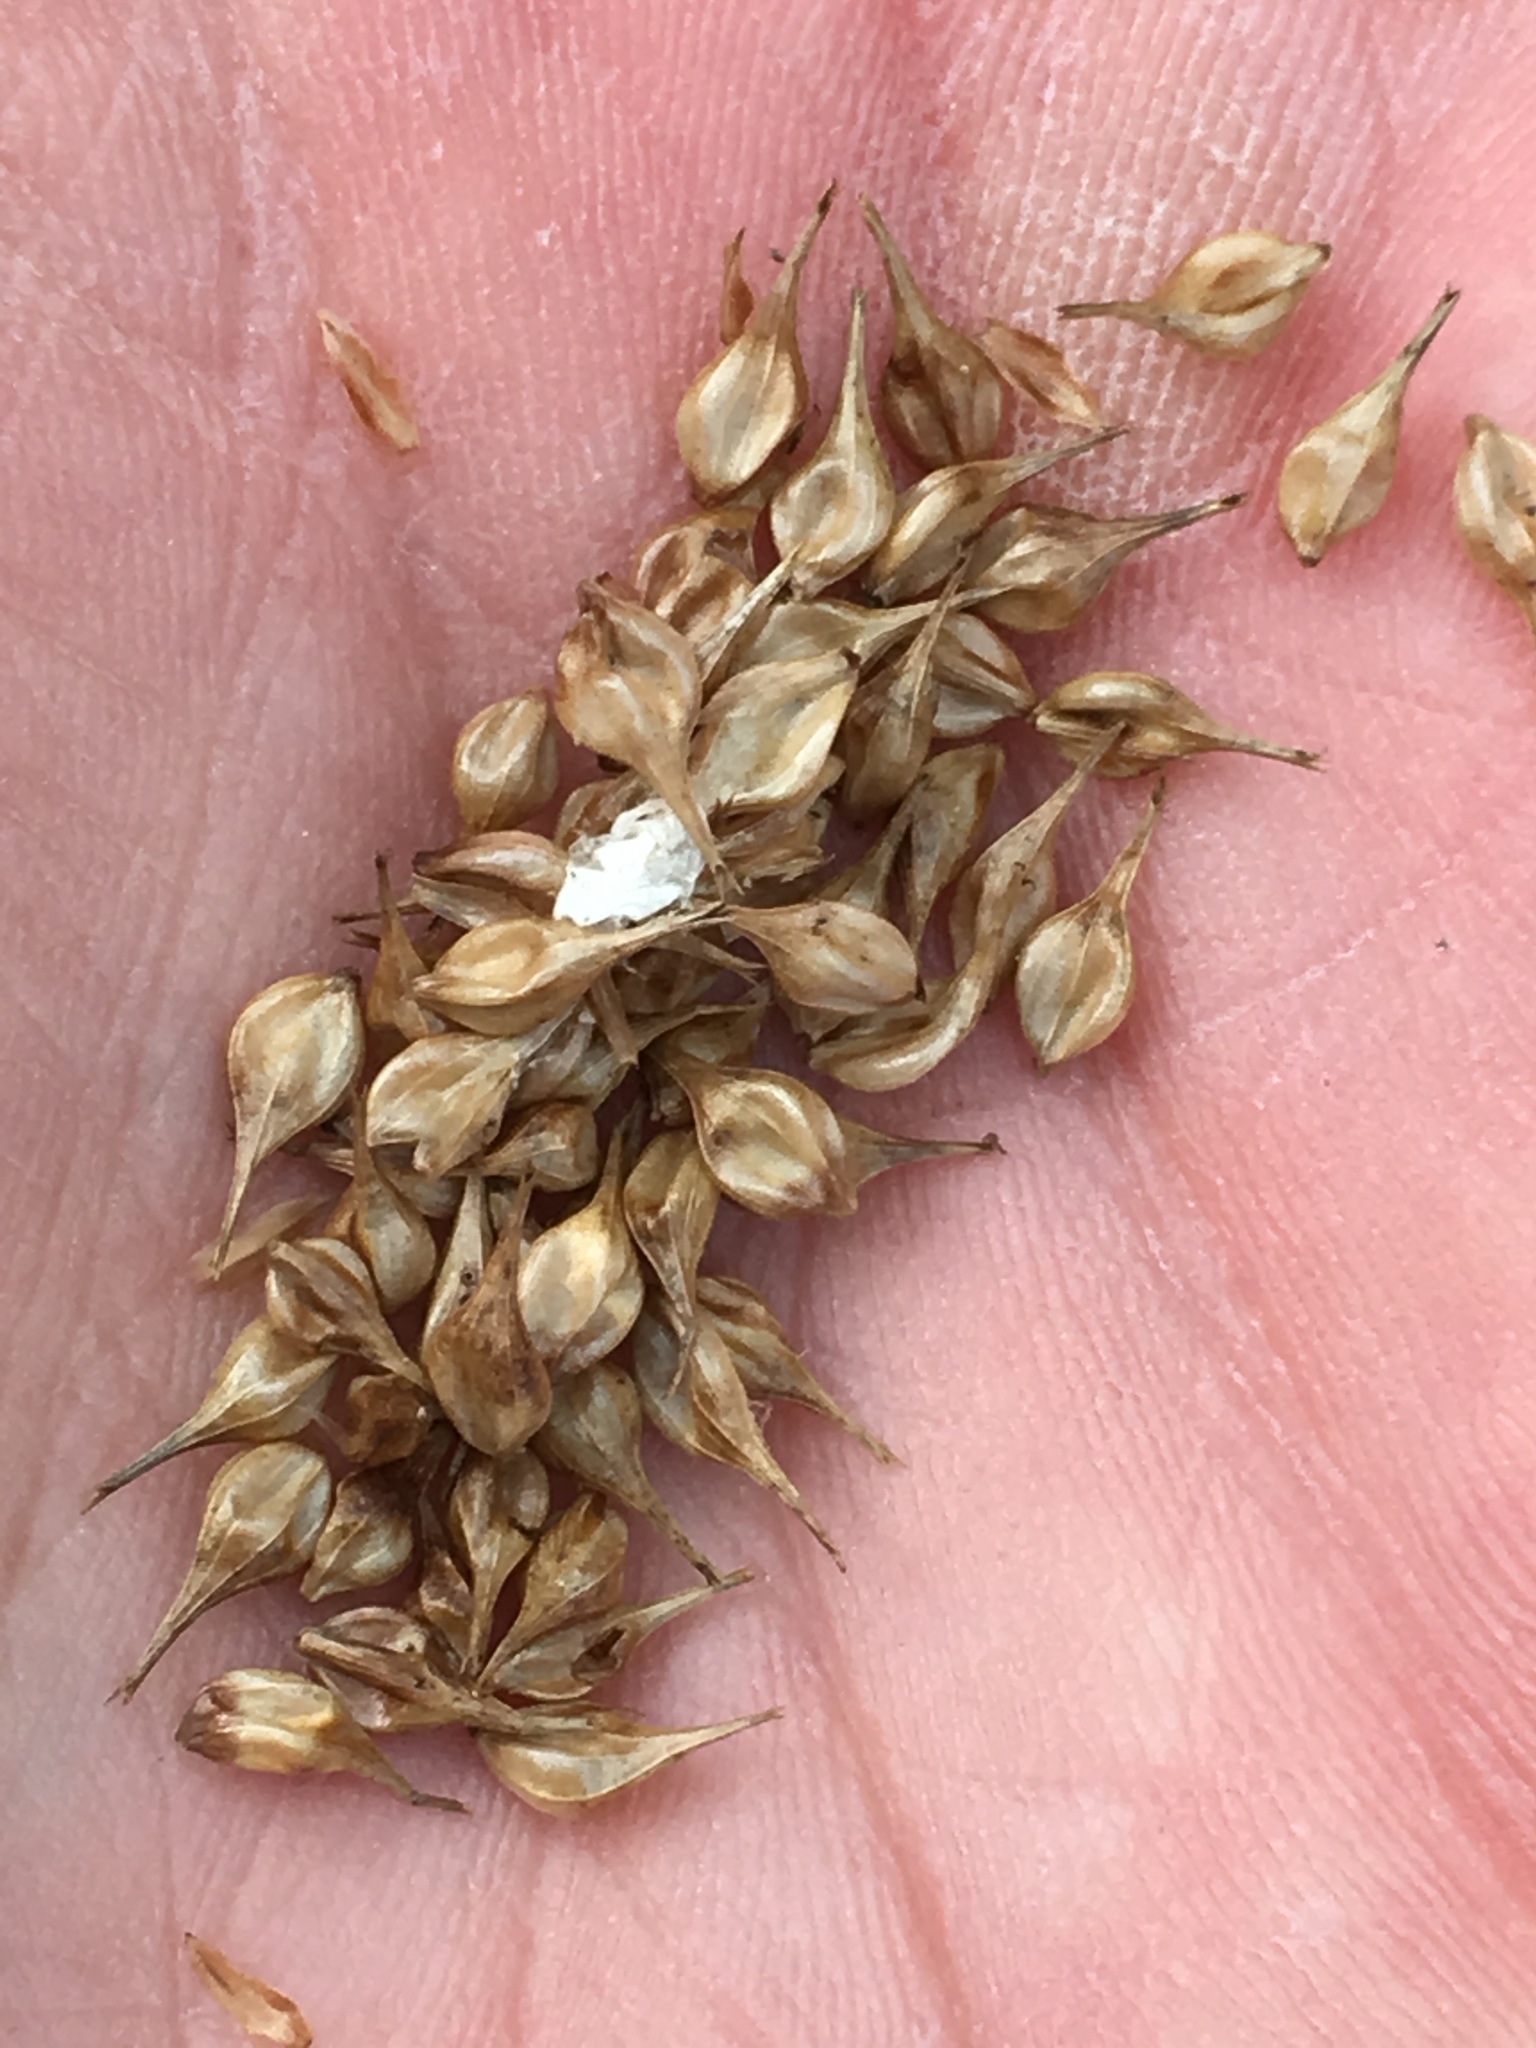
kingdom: Plantae
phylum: Tracheophyta
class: Liliopsida
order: Poales
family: Cyperaceae
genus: Carex
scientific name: Carex retrorsa
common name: Knot-sheath sedge
